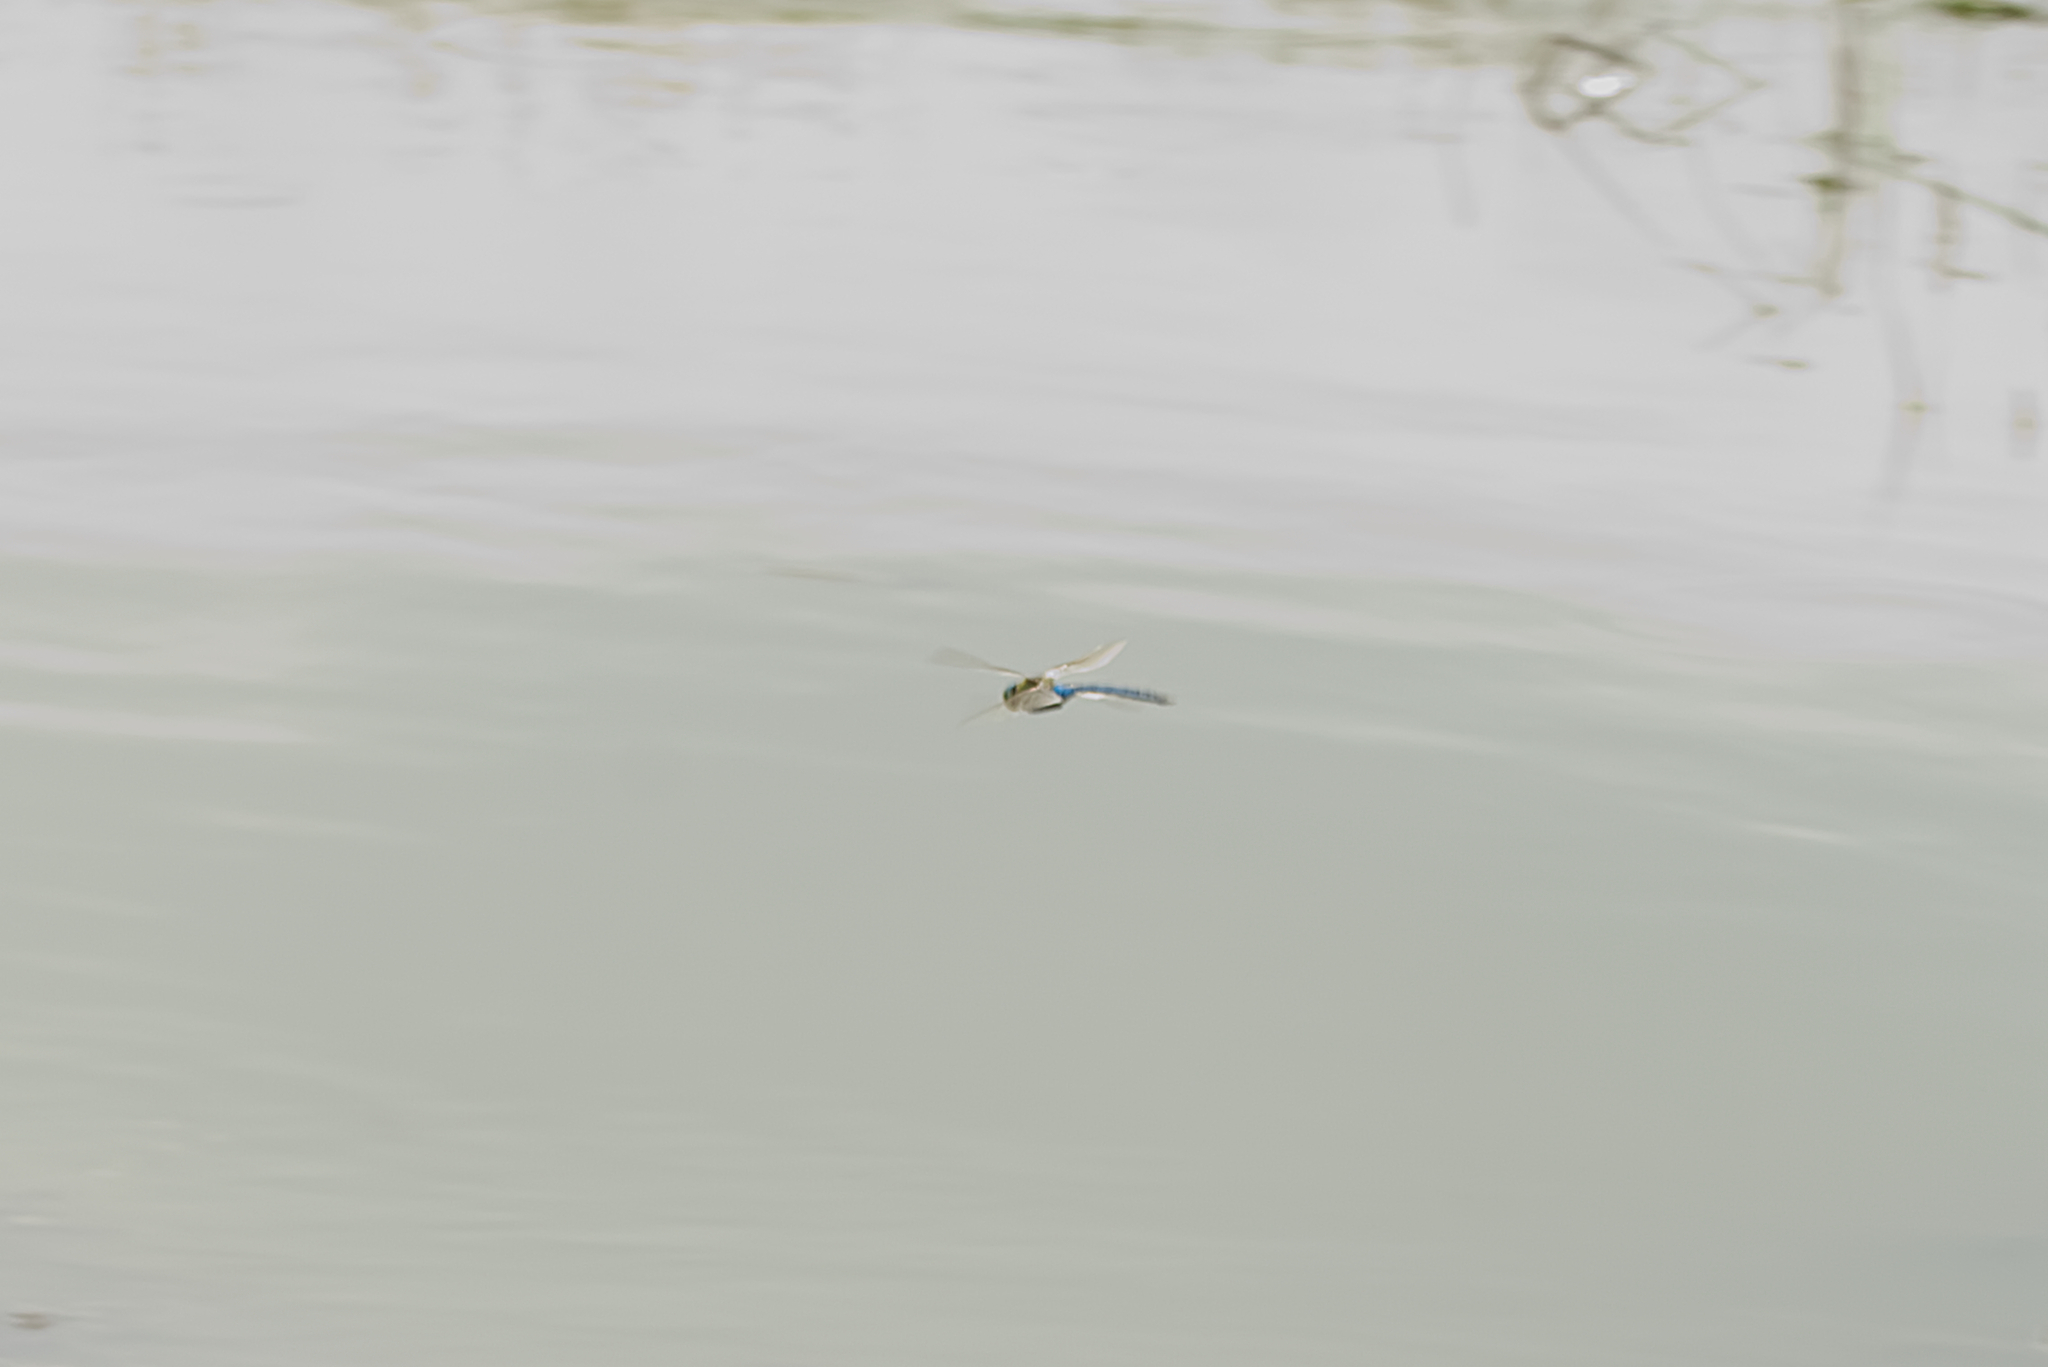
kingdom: Animalia
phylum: Arthropoda
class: Insecta
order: Odonata
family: Aeshnidae
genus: Anax
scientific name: Anax imperator
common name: Emperor dragonfly
